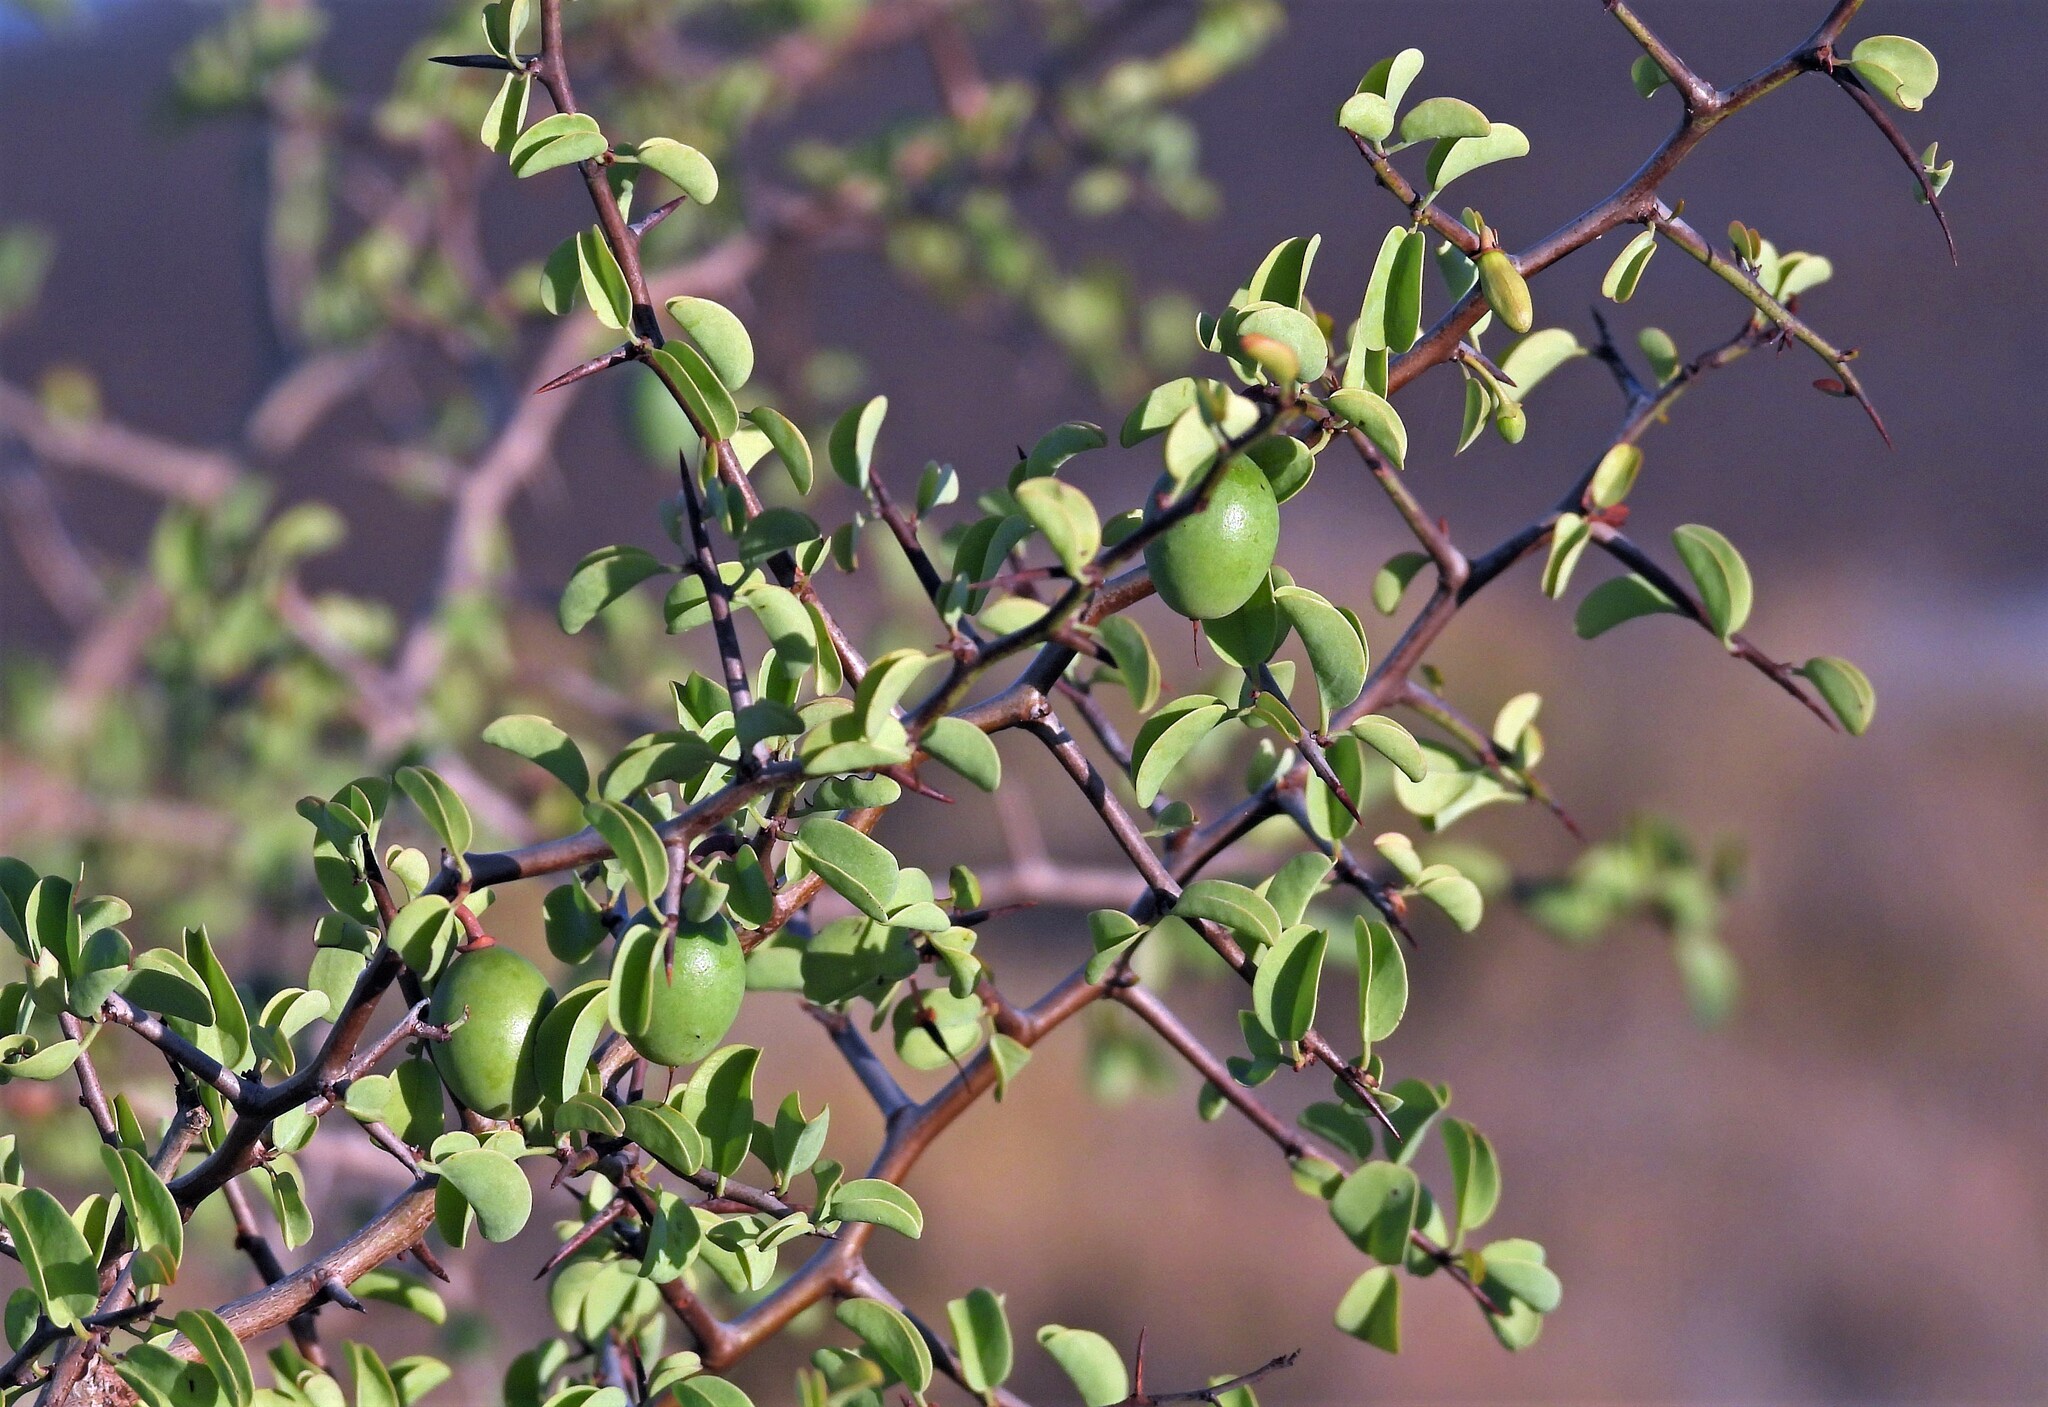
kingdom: Plantae
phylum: Tracheophyta
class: Magnoliopsida
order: Santalales
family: Ximeniaceae
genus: Ximenia
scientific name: Ximenia americana
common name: Tallowwood
